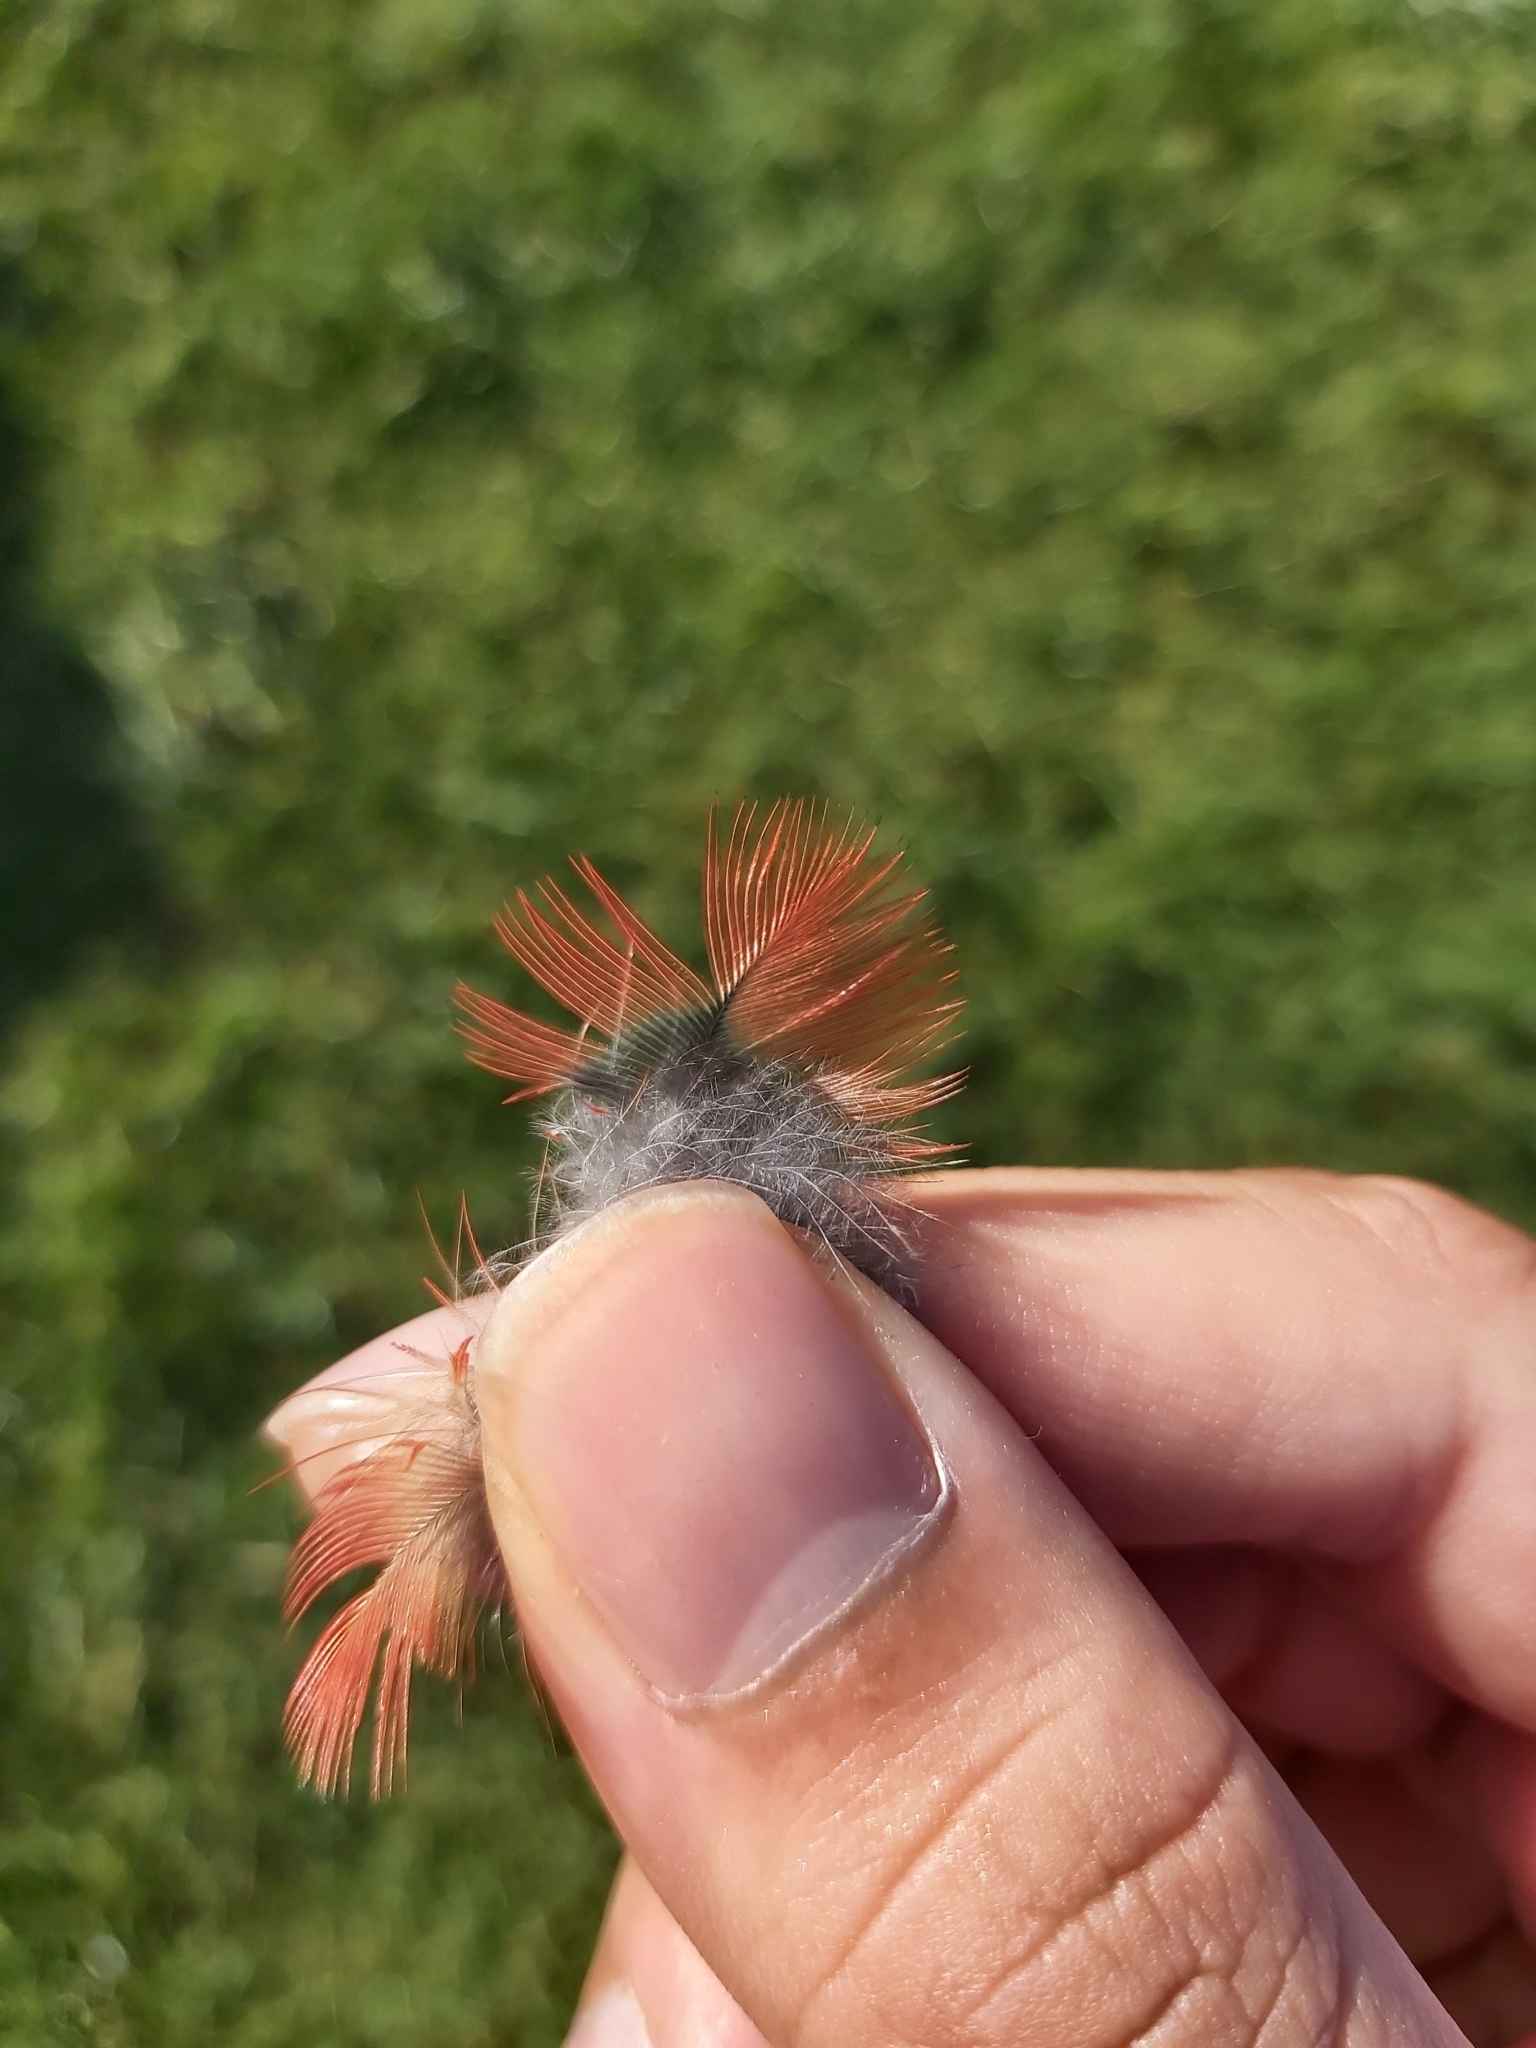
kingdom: Animalia
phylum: Chordata
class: Aves
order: Psittaciformes
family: Psittacidae
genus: Platycercus
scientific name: Platycercus elegans
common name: Crimson rosella
